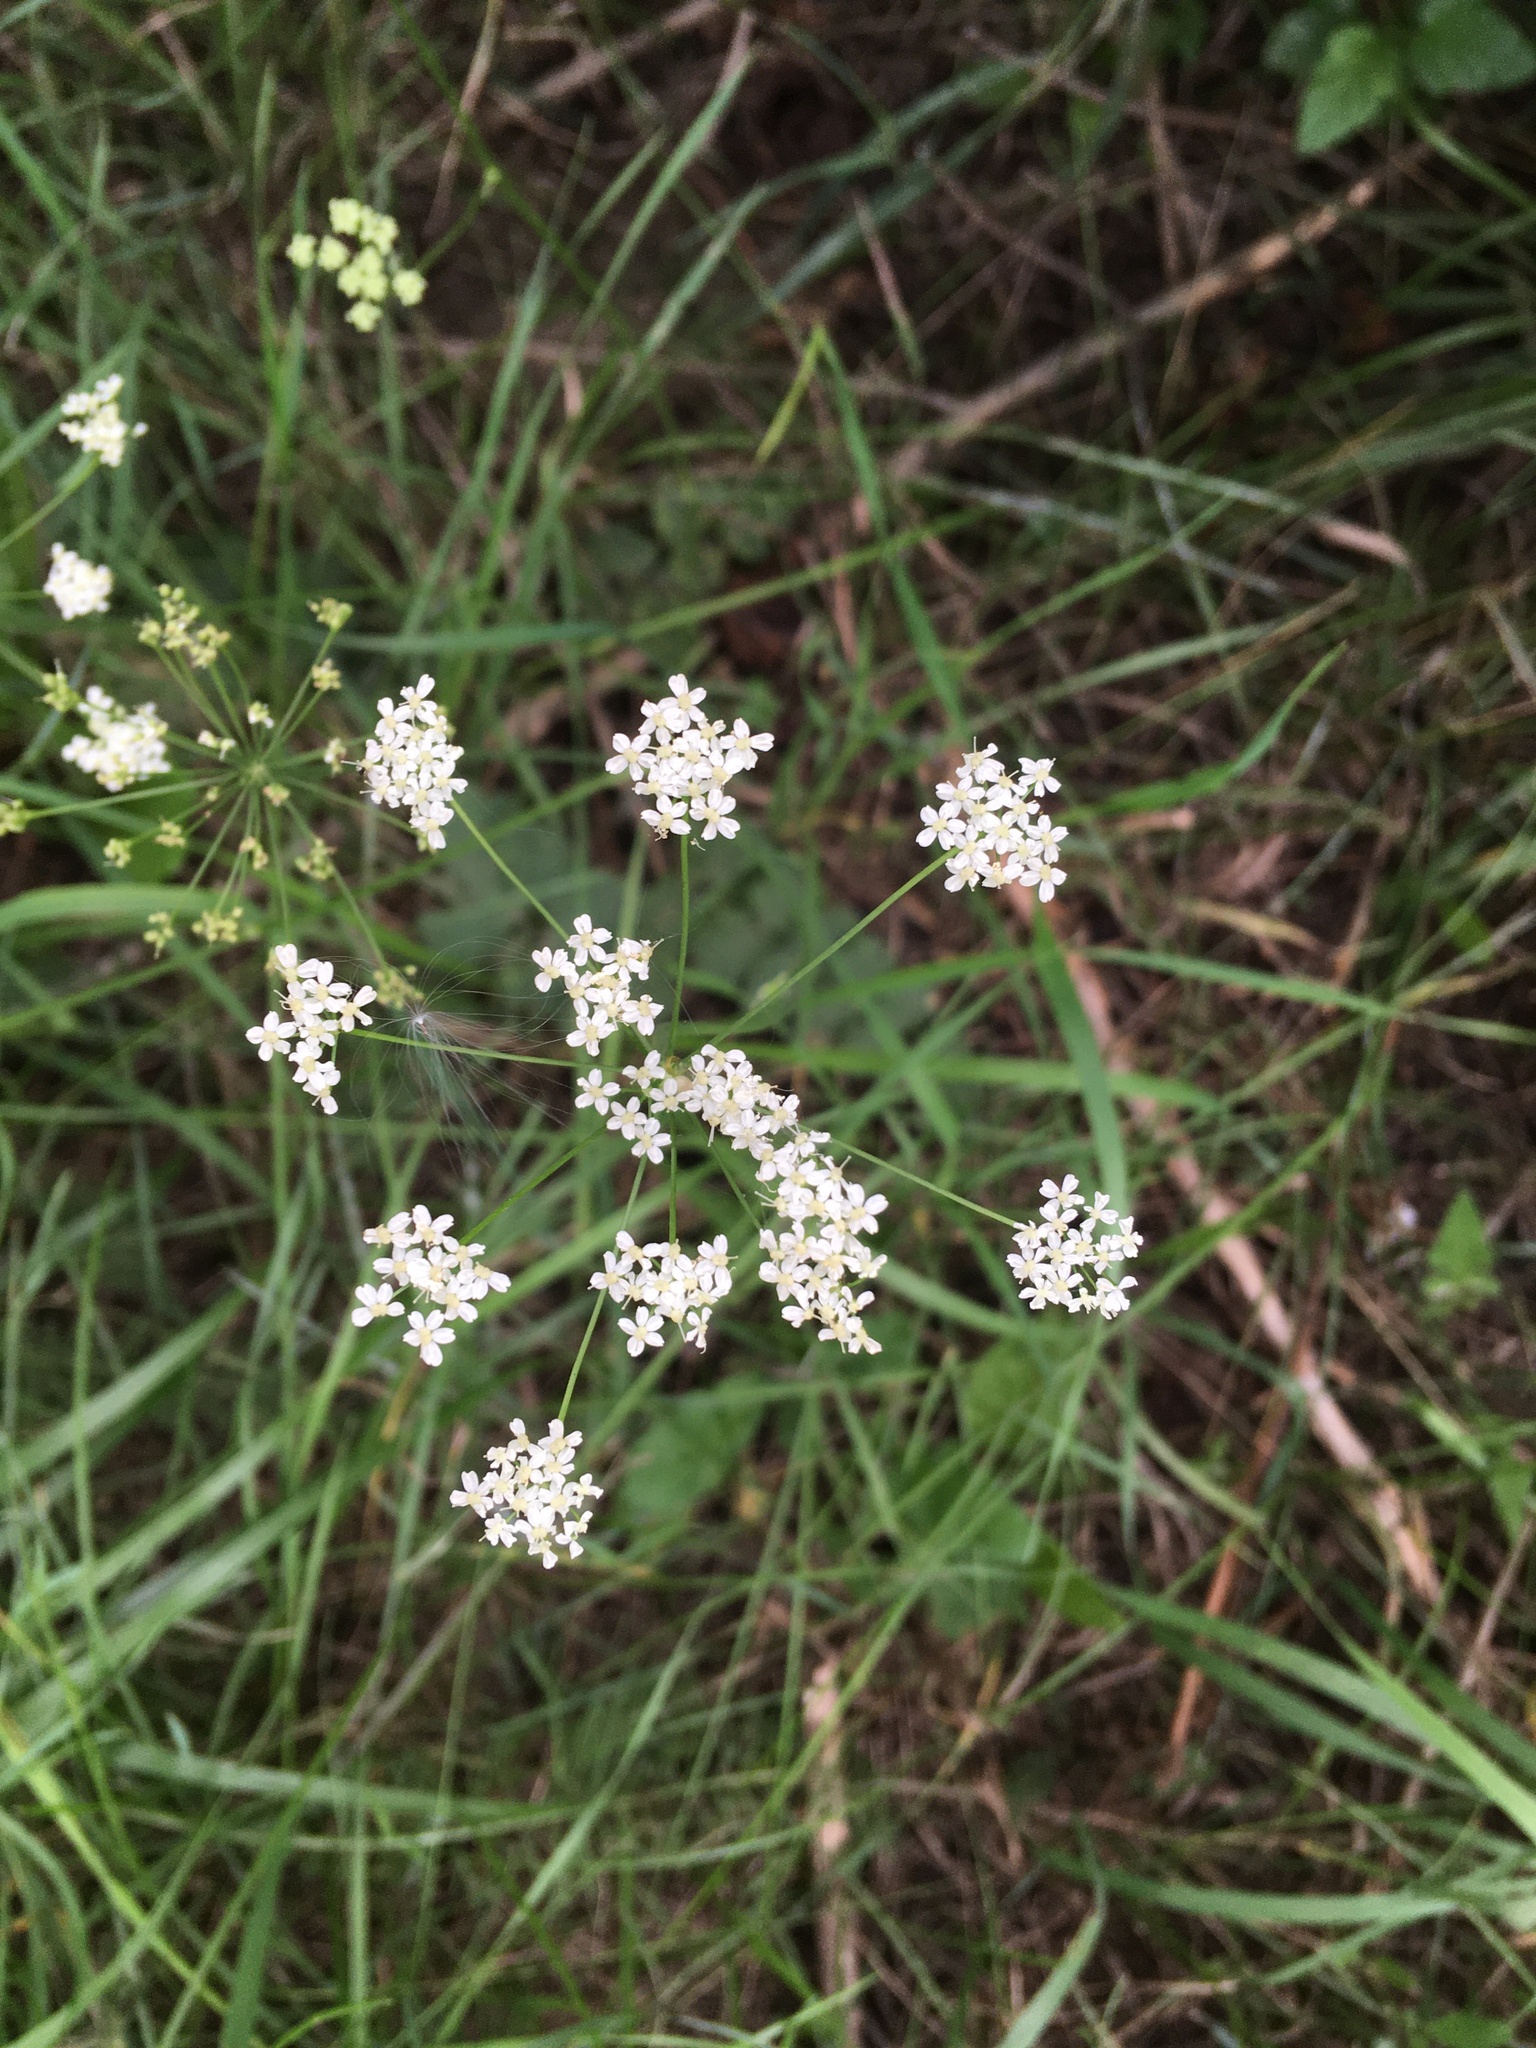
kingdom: Plantae
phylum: Tracheophyta
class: Magnoliopsida
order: Apiales
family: Apiaceae
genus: Carum
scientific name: Carum carvi
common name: Caraway
